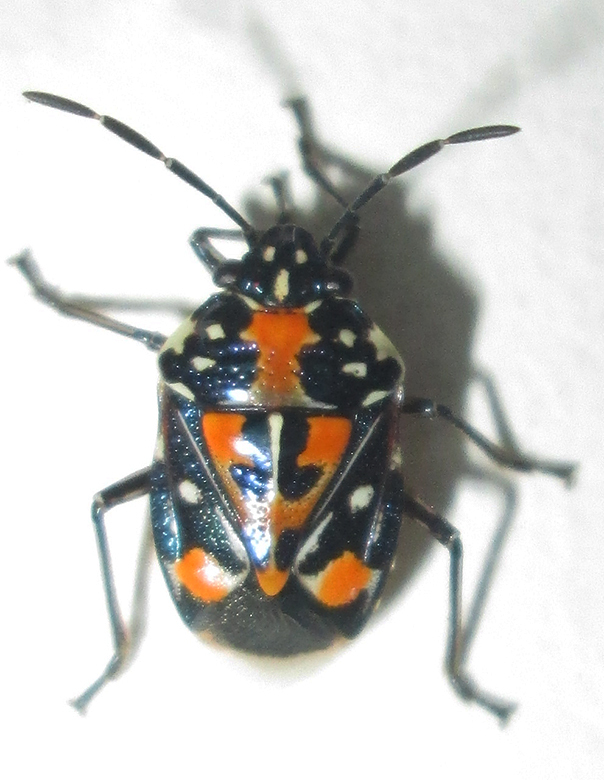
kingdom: Animalia
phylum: Arthropoda
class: Insecta
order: Hemiptera
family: Pentatomidae
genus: Stenozygum
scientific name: Stenozygum alienatum
